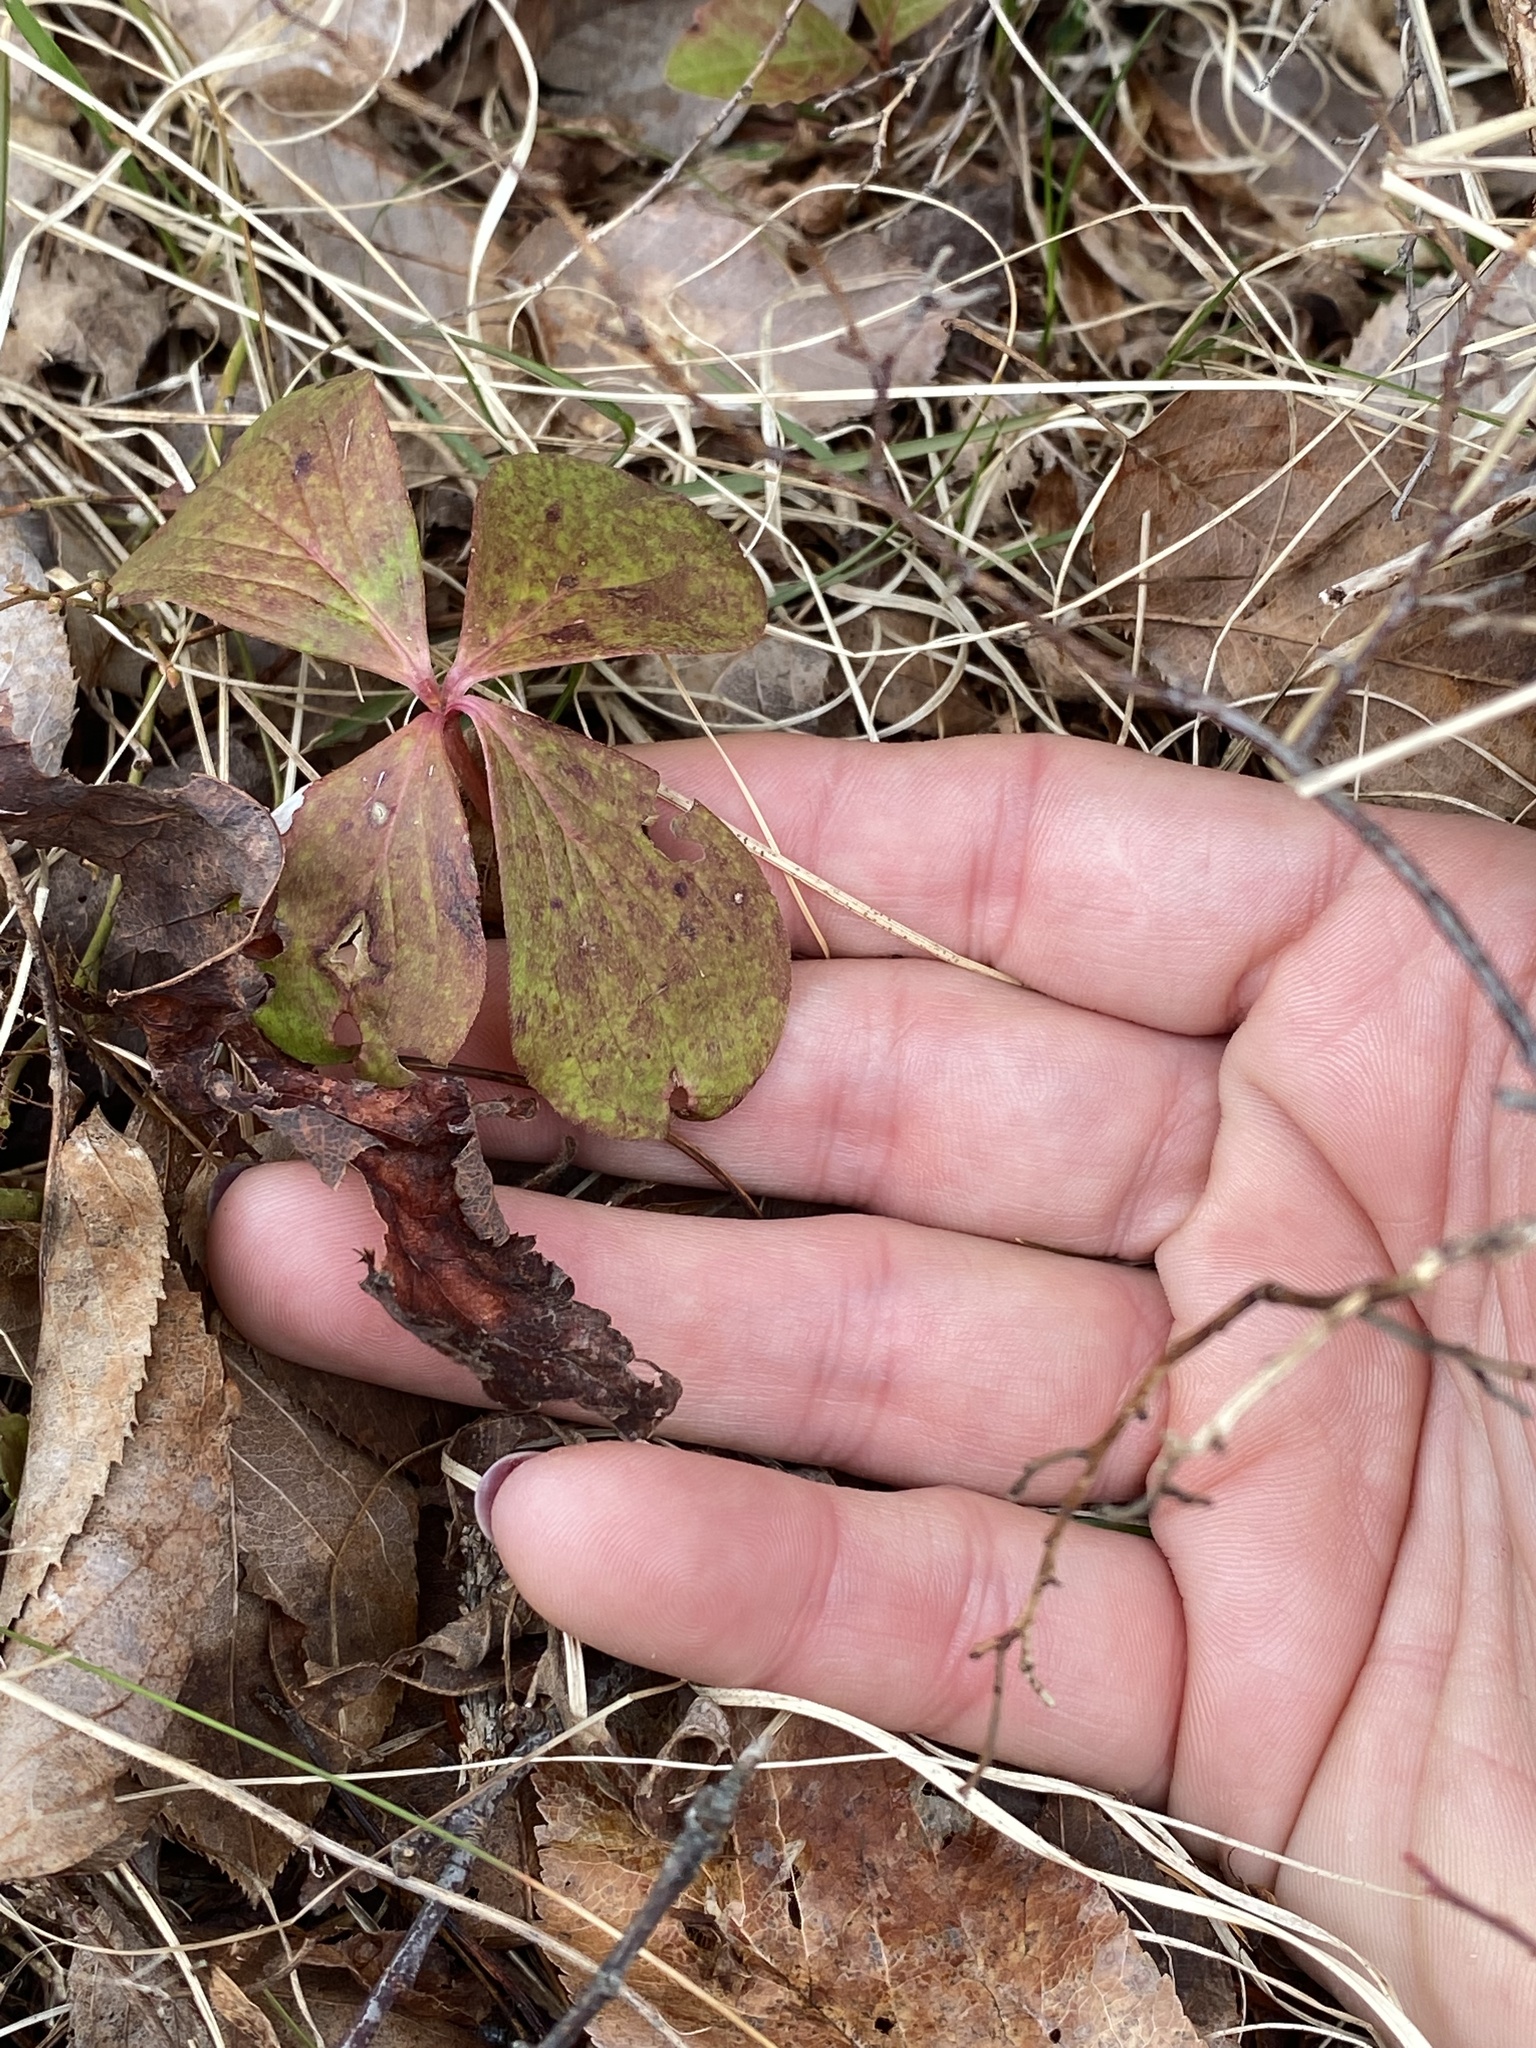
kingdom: Plantae
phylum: Tracheophyta
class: Magnoliopsida
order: Cornales
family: Cornaceae
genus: Cornus
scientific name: Cornus canadensis
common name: Creeping dogwood
